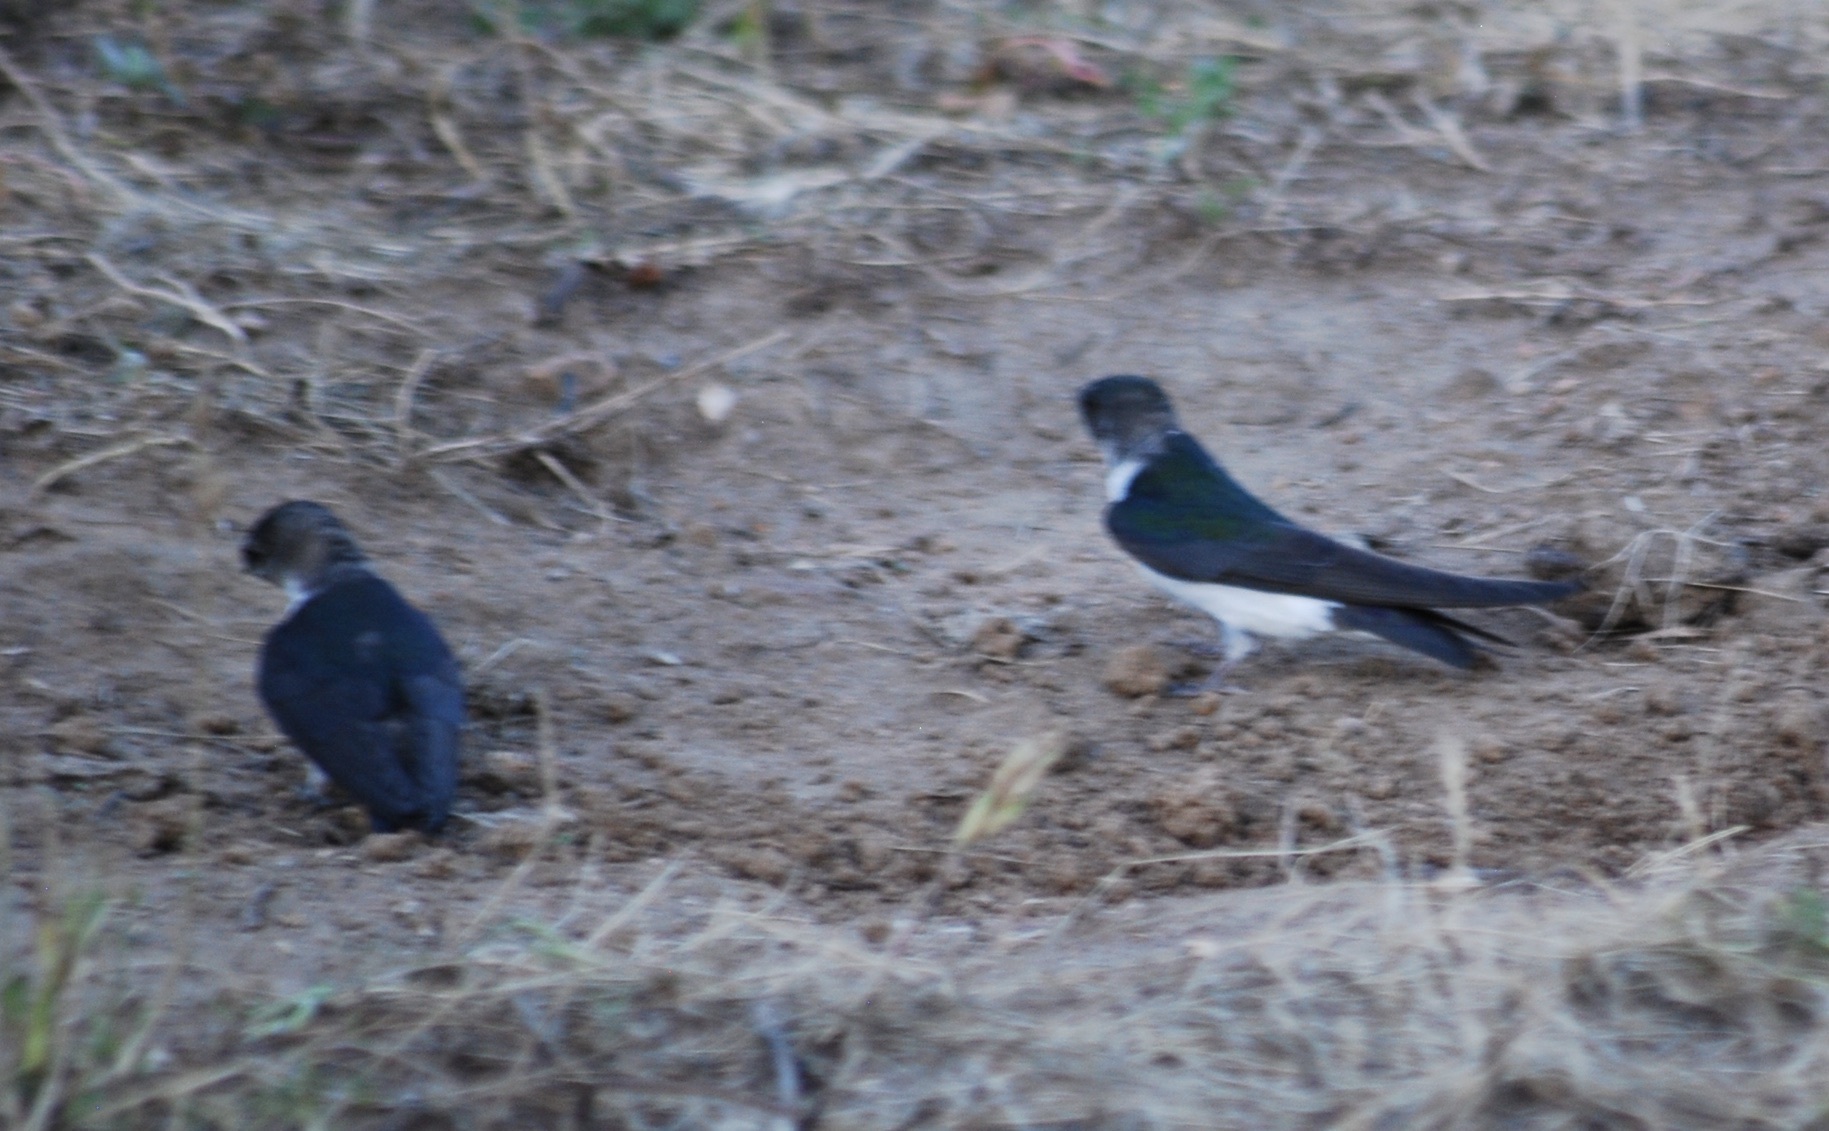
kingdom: Animalia
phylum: Chordata
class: Aves
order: Passeriformes
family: Hirundinidae
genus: Tachycineta
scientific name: Tachycineta bicolor
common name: Tree swallow
